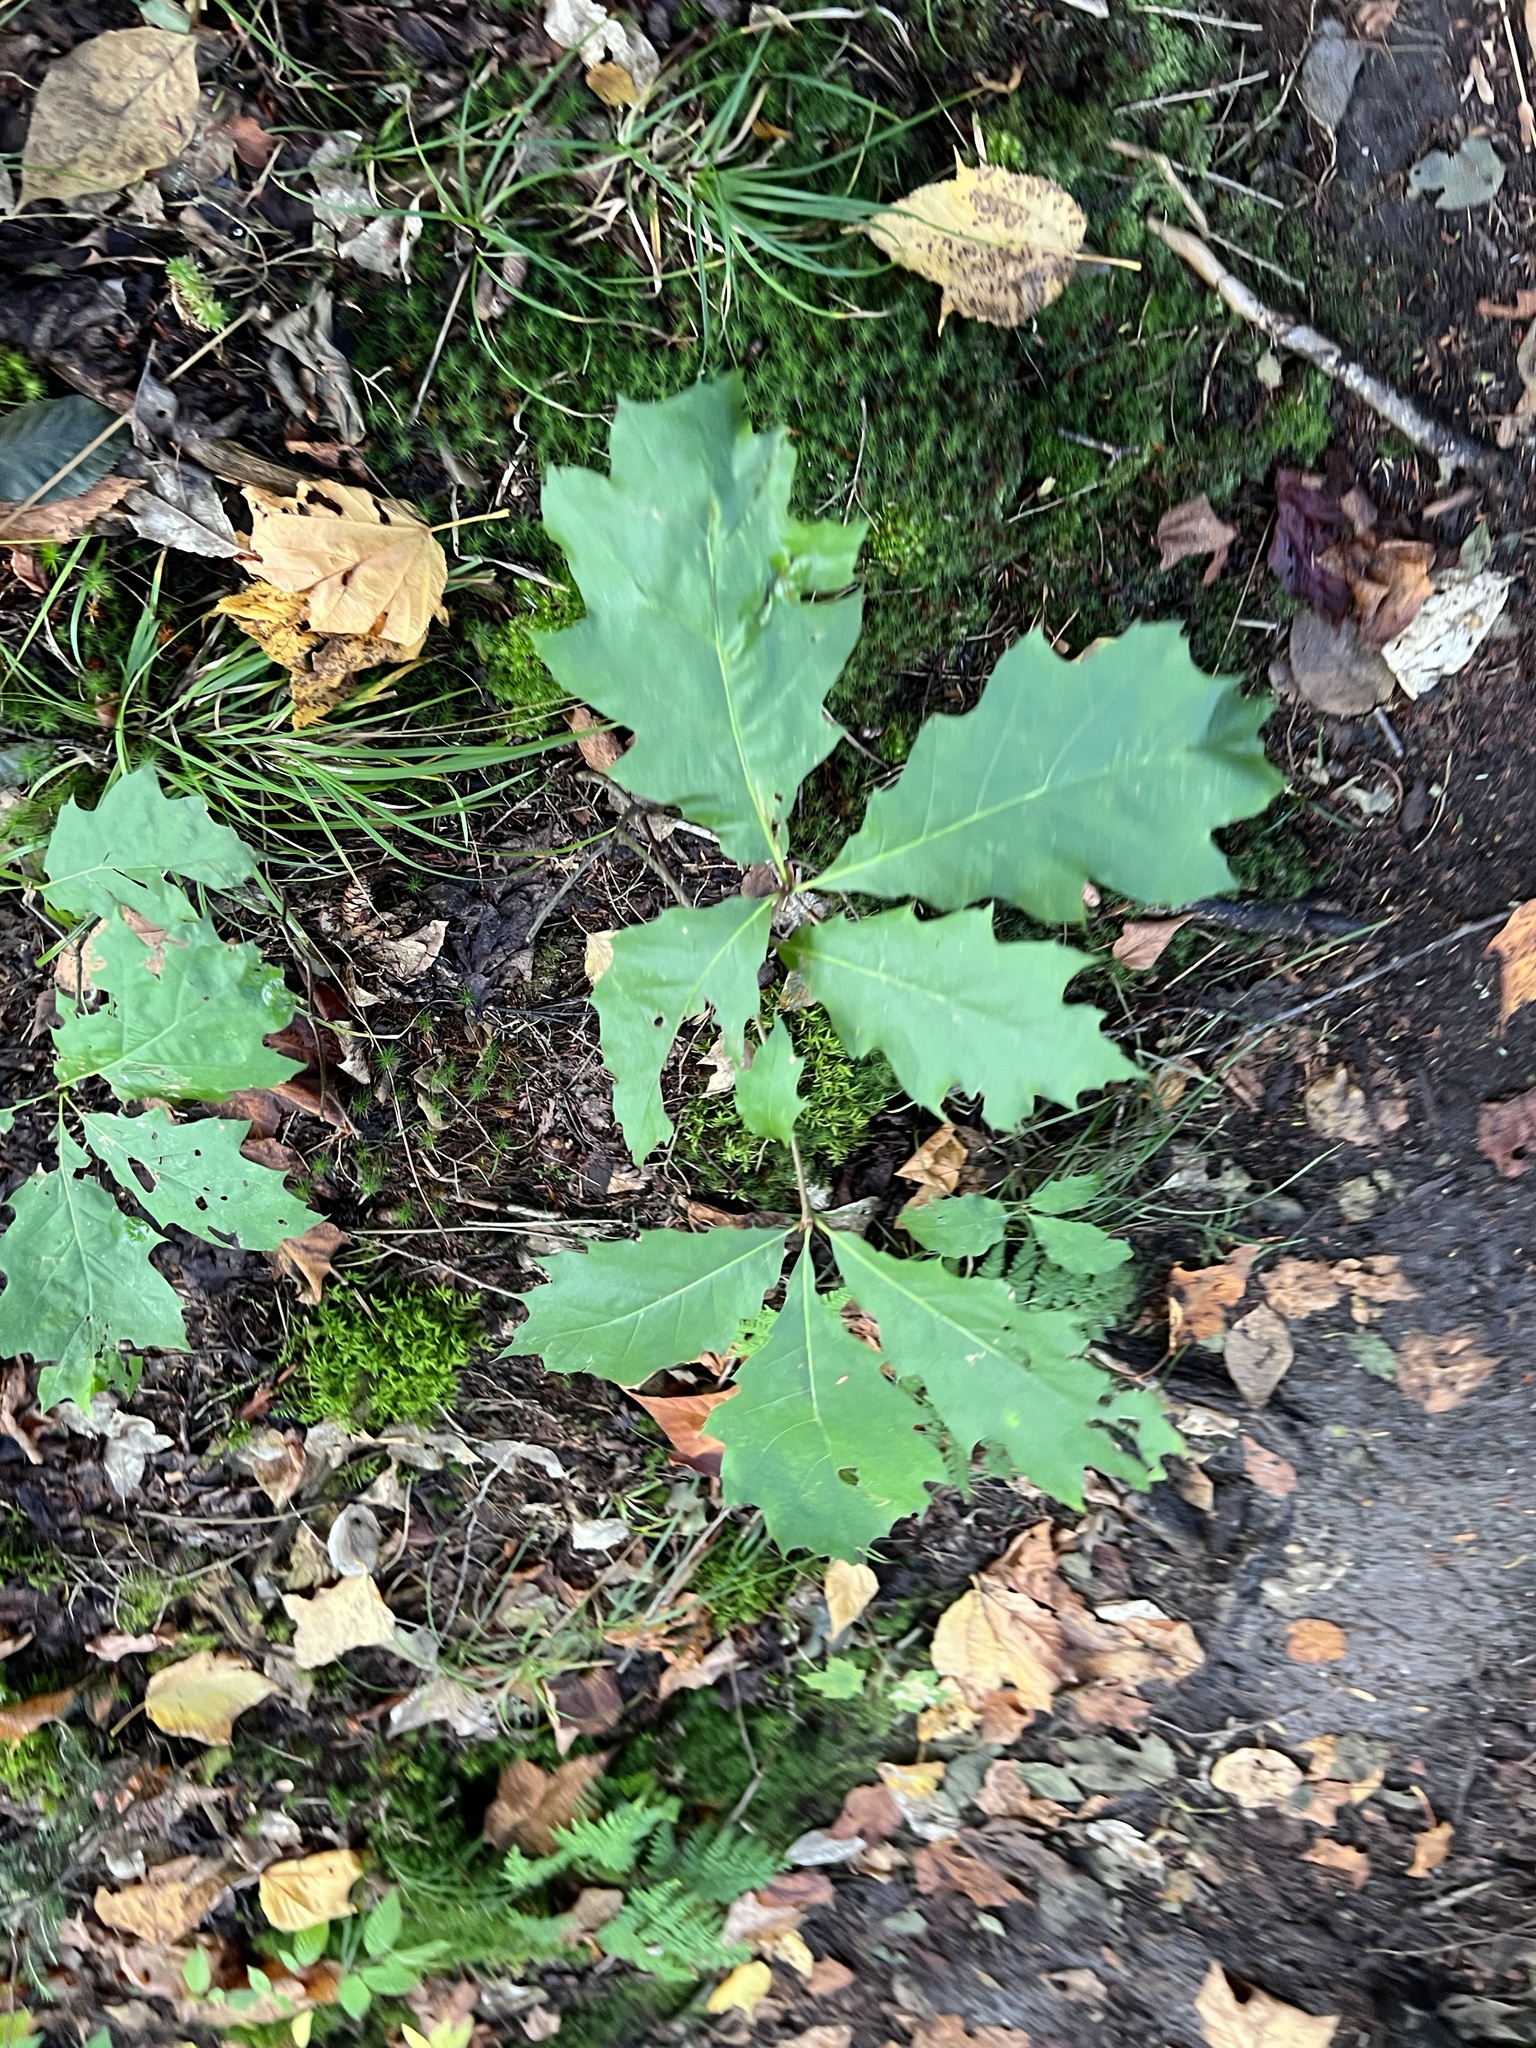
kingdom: Plantae
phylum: Tracheophyta
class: Magnoliopsida
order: Fagales
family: Fagaceae
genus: Quercus
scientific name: Quercus rubra
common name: Red oak
